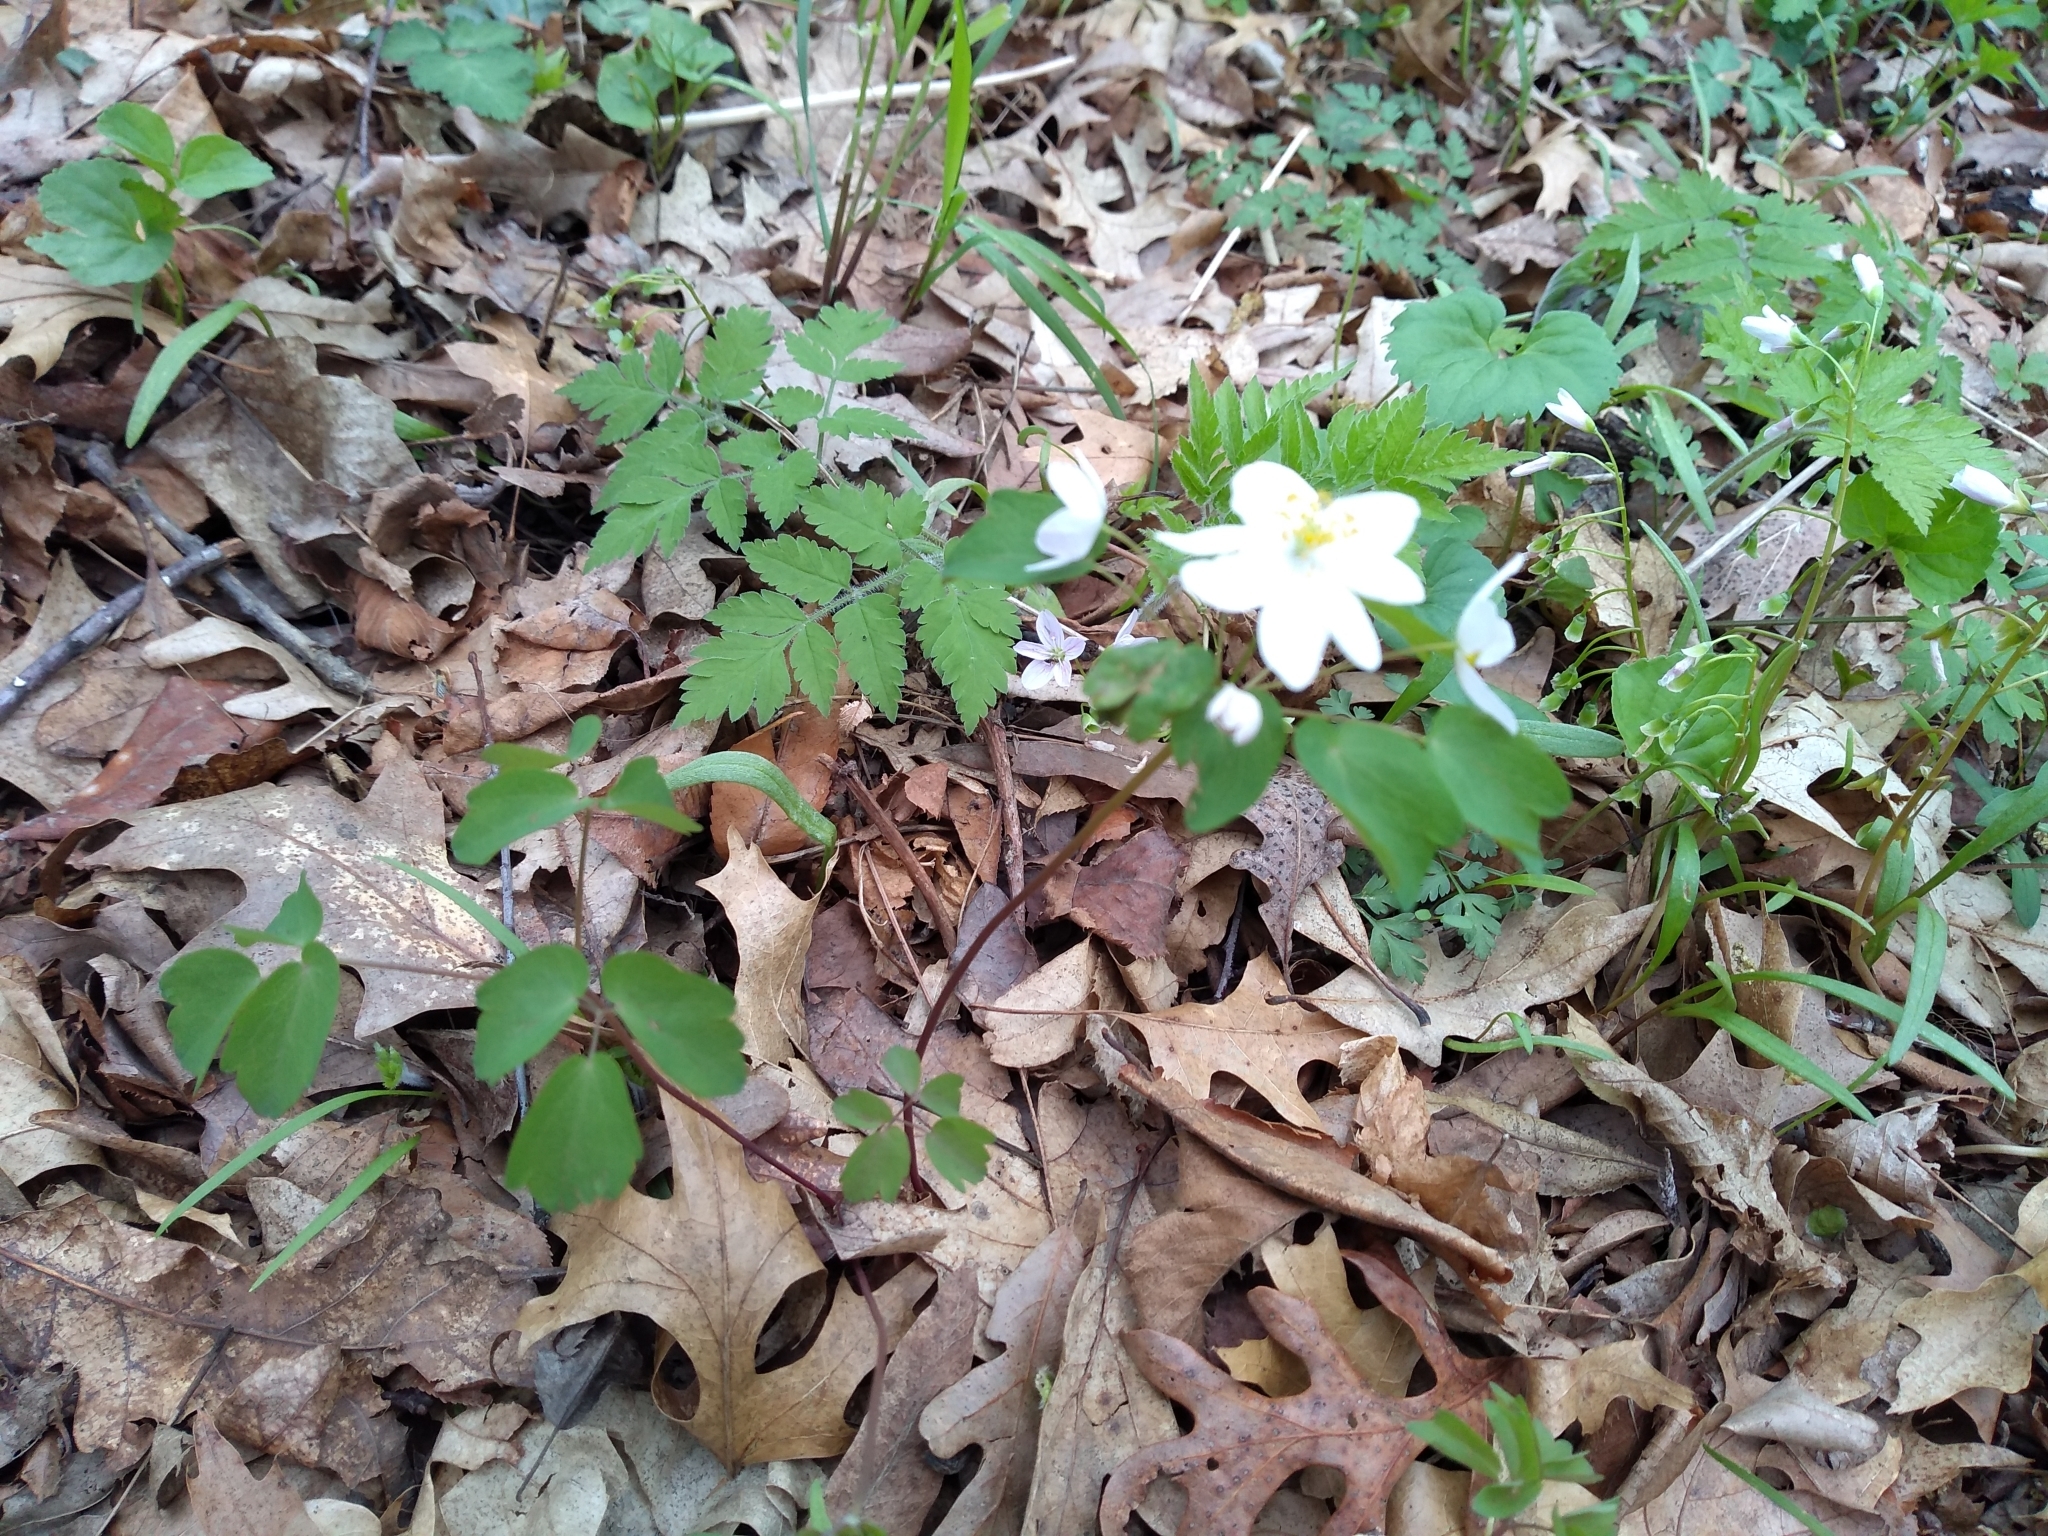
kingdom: Plantae
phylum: Tracheophyta
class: Magnoliopsida
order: Ranunculales
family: Ranunculaceae
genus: Thalictrum
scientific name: Thalictrum thalictroides
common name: Rue-anemone
